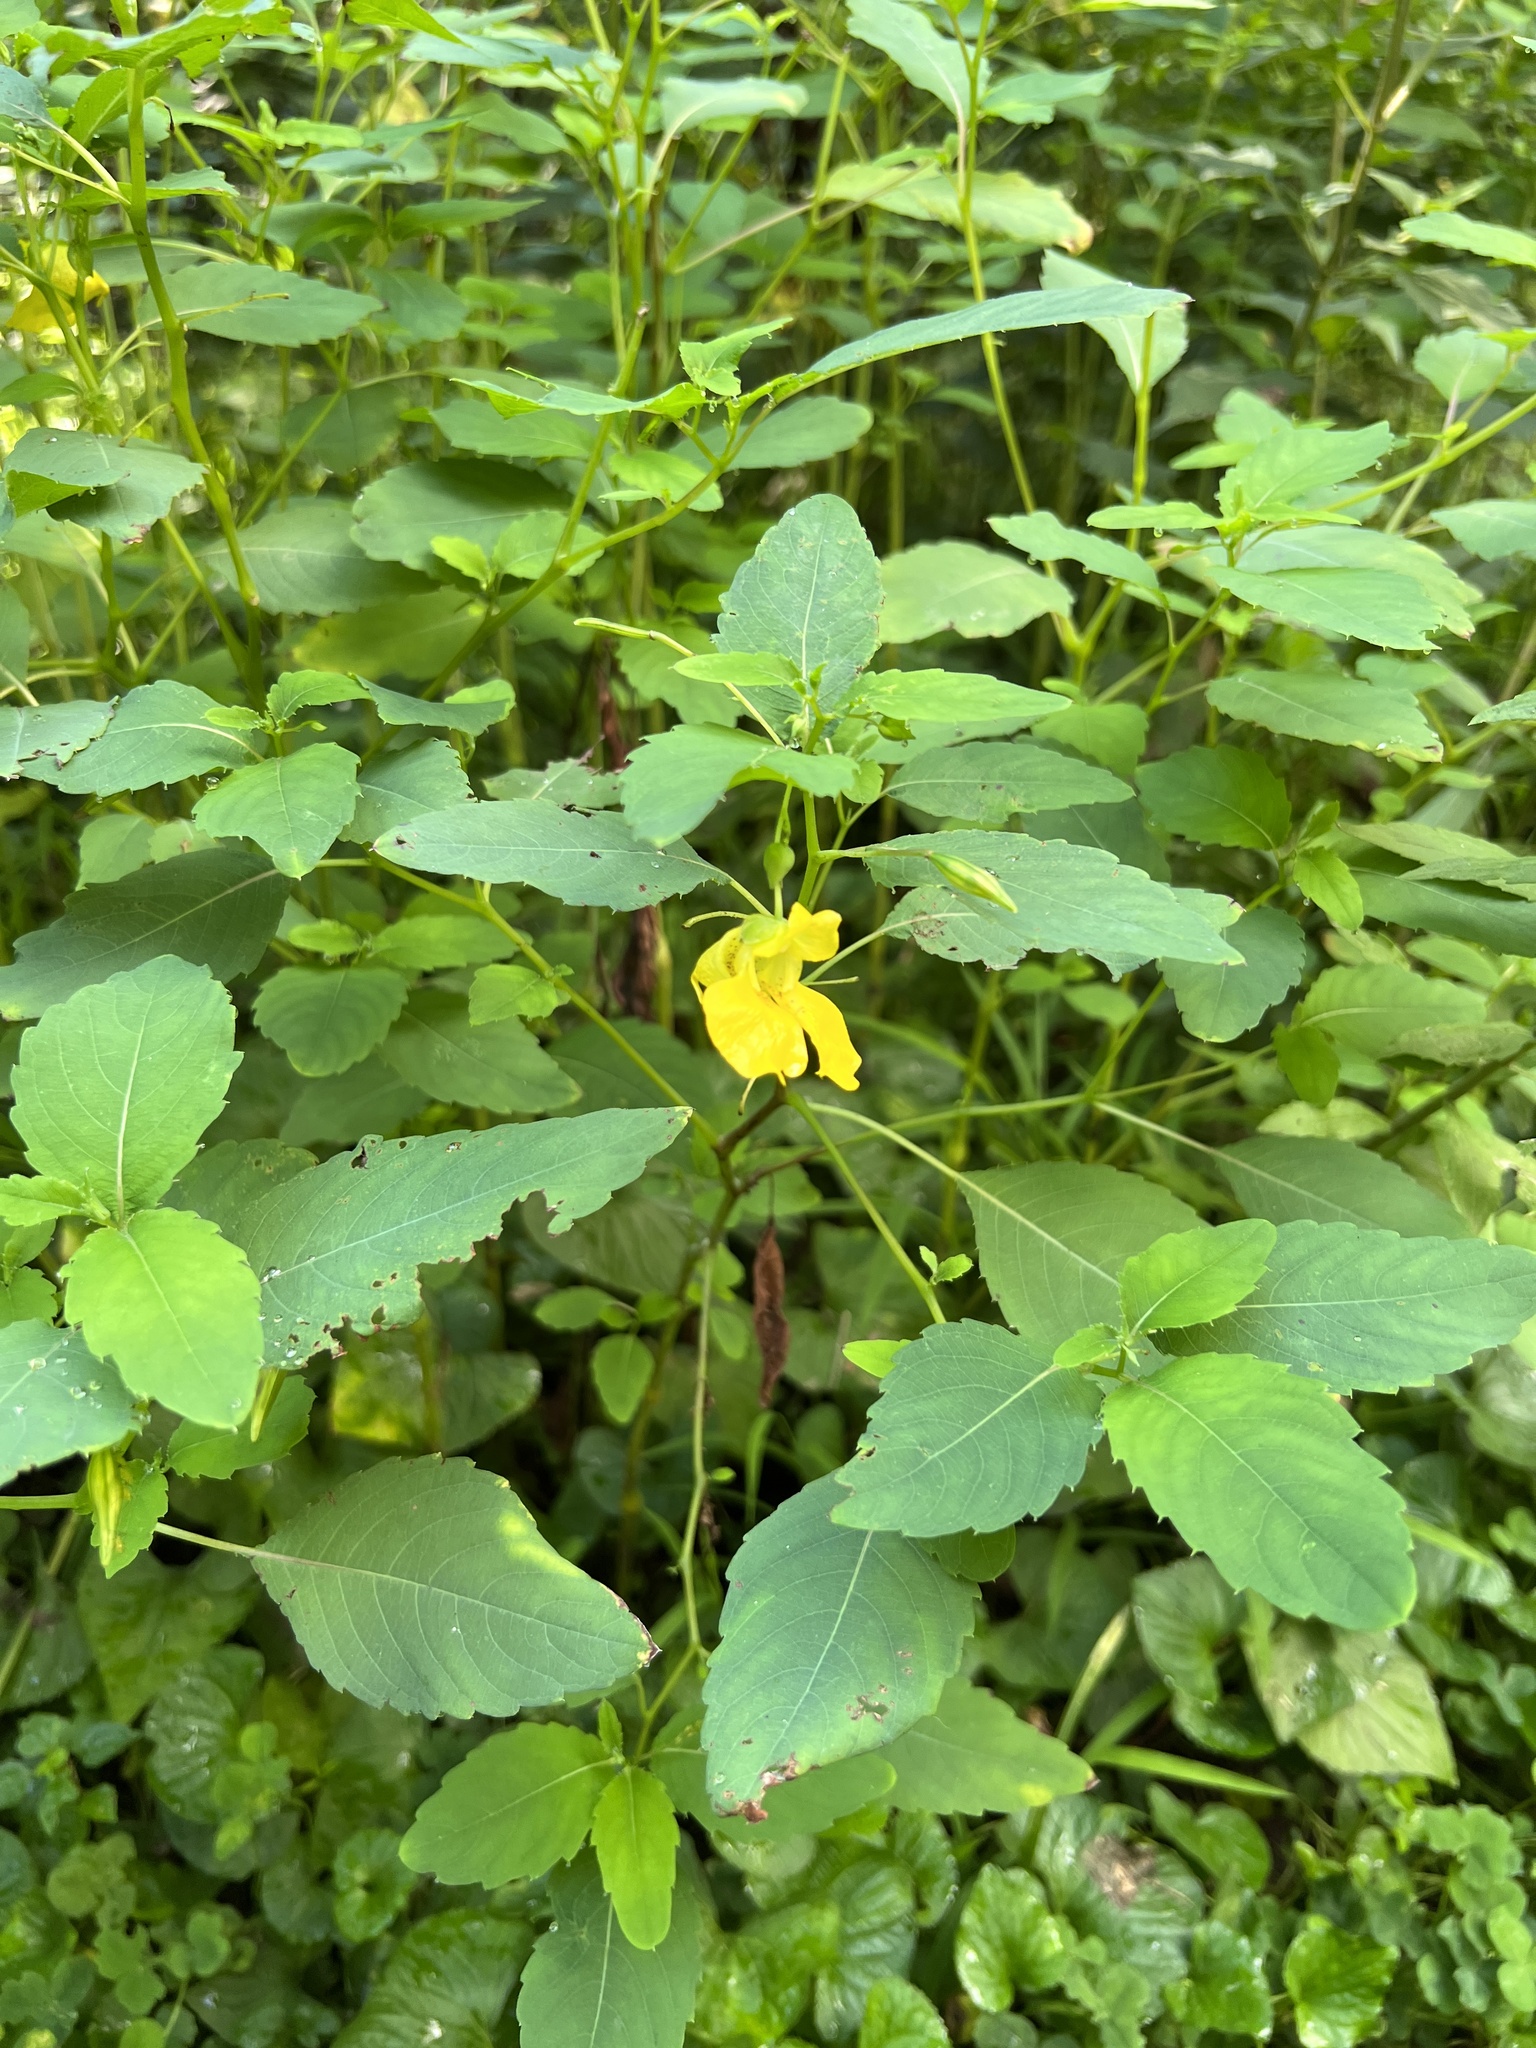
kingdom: Plantae
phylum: Tracheophyta
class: Magnoliopsida
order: Ericales
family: Balsaminaceae
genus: Impatiens
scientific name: Impatiens pallida
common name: Pale snapweed
